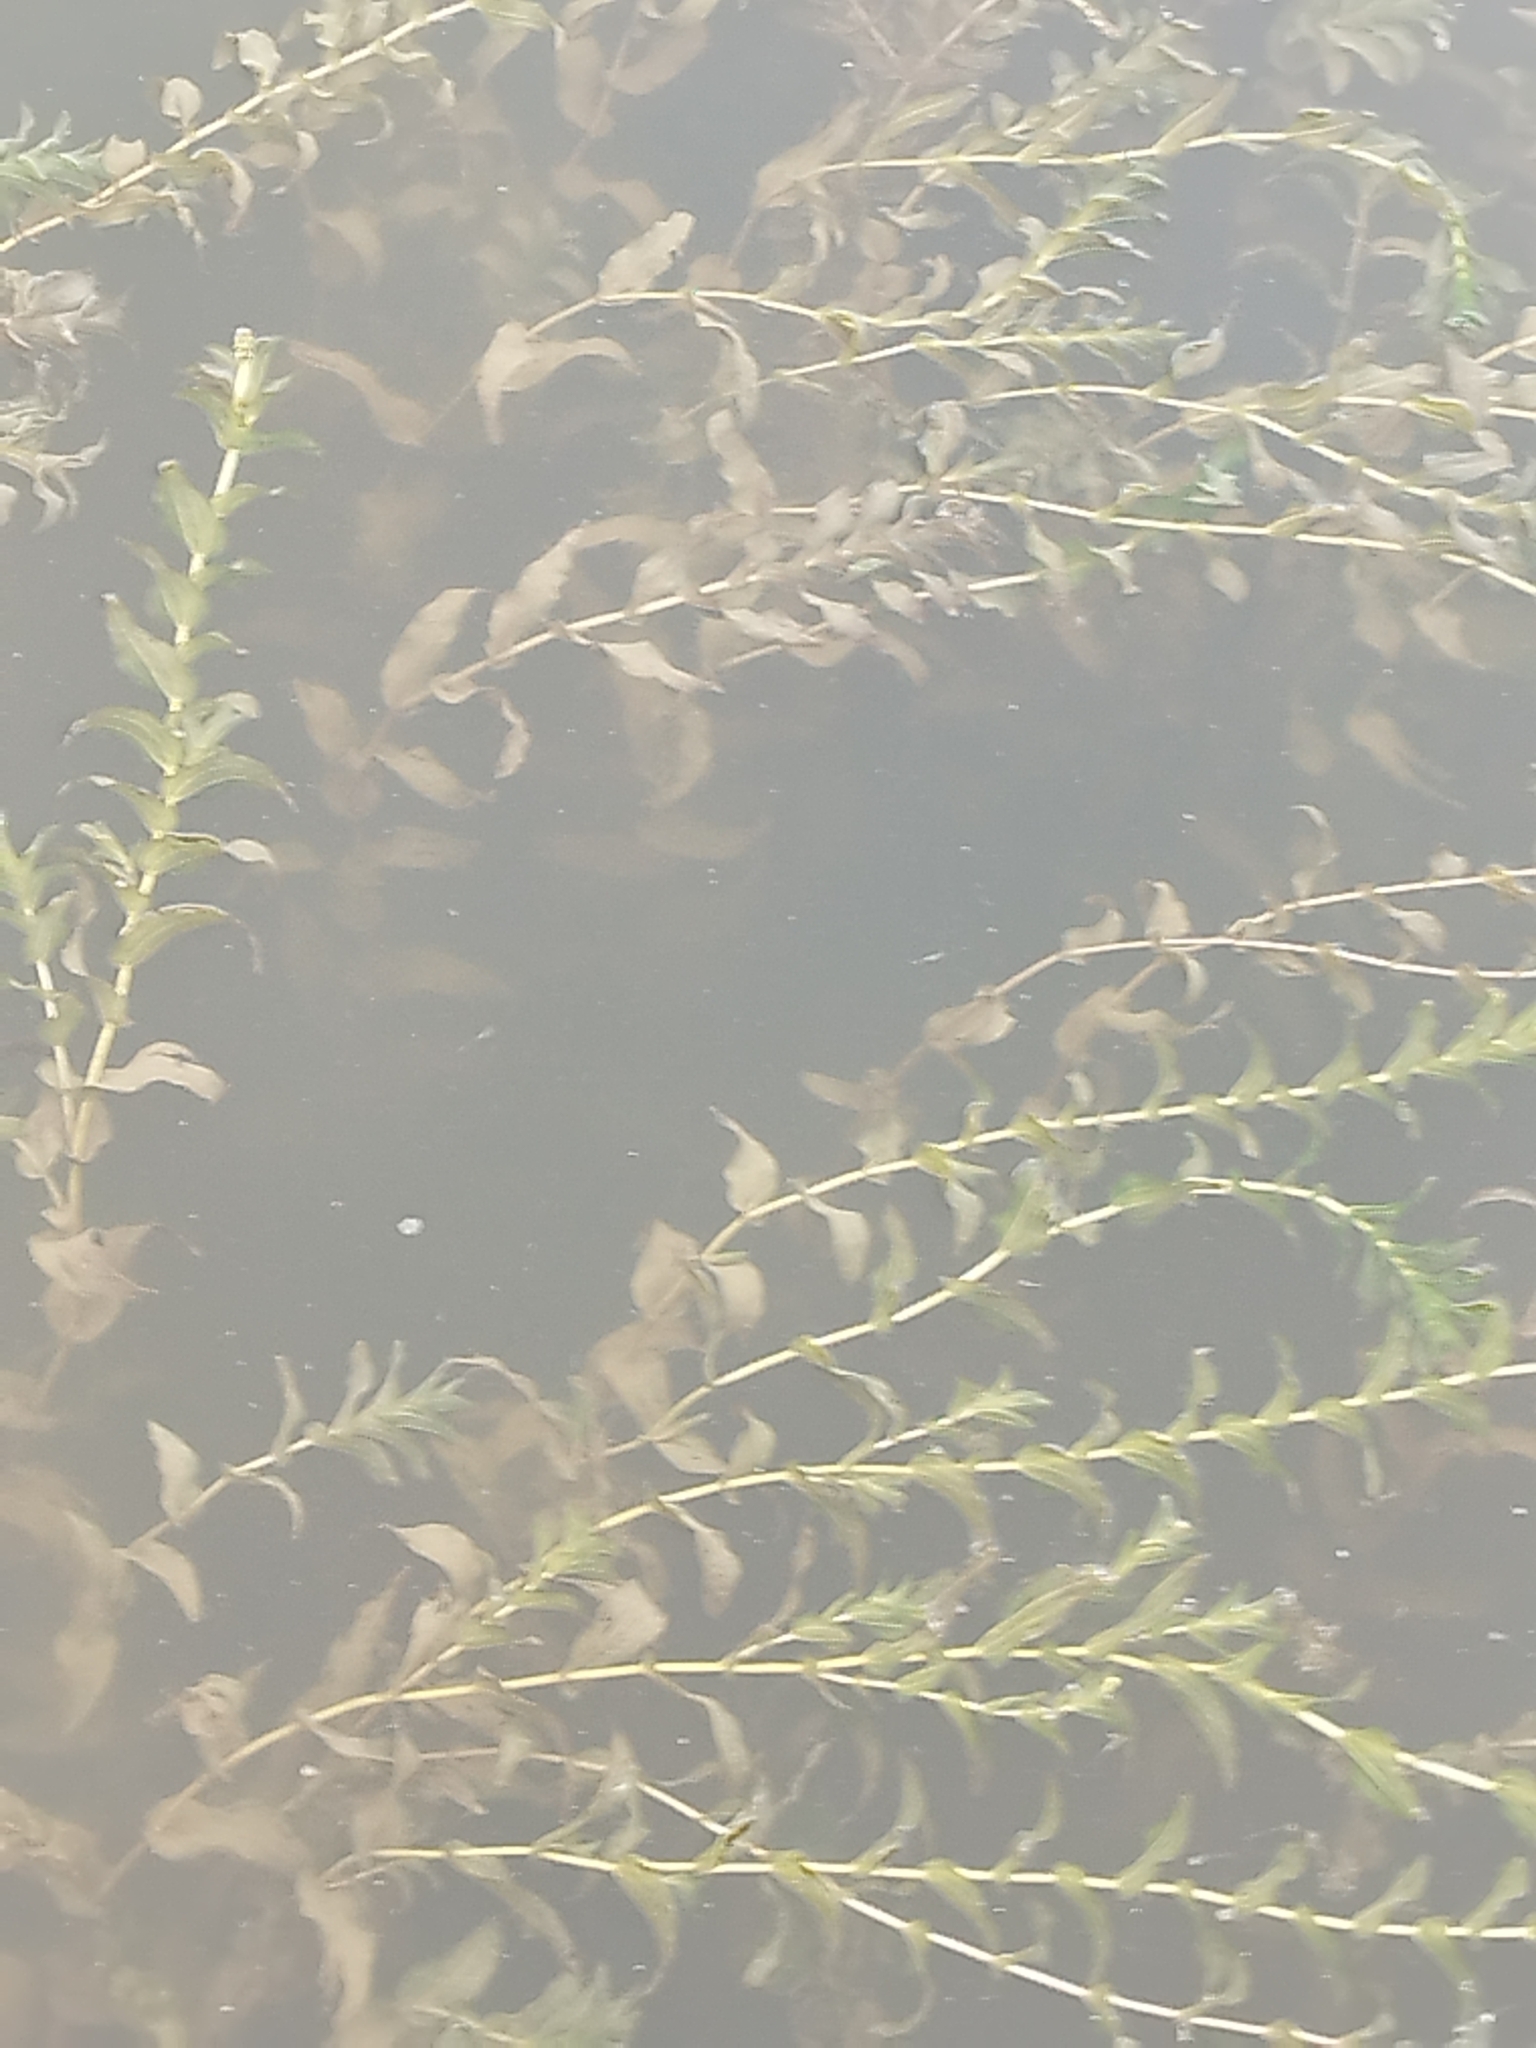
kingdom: Plantae
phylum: Tracheophyta
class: Liliopsida
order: Alismatales
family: Potamogetonaceae
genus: Potamogeton
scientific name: Potamogeton perfoliatus
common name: Perfoliate pondweed
